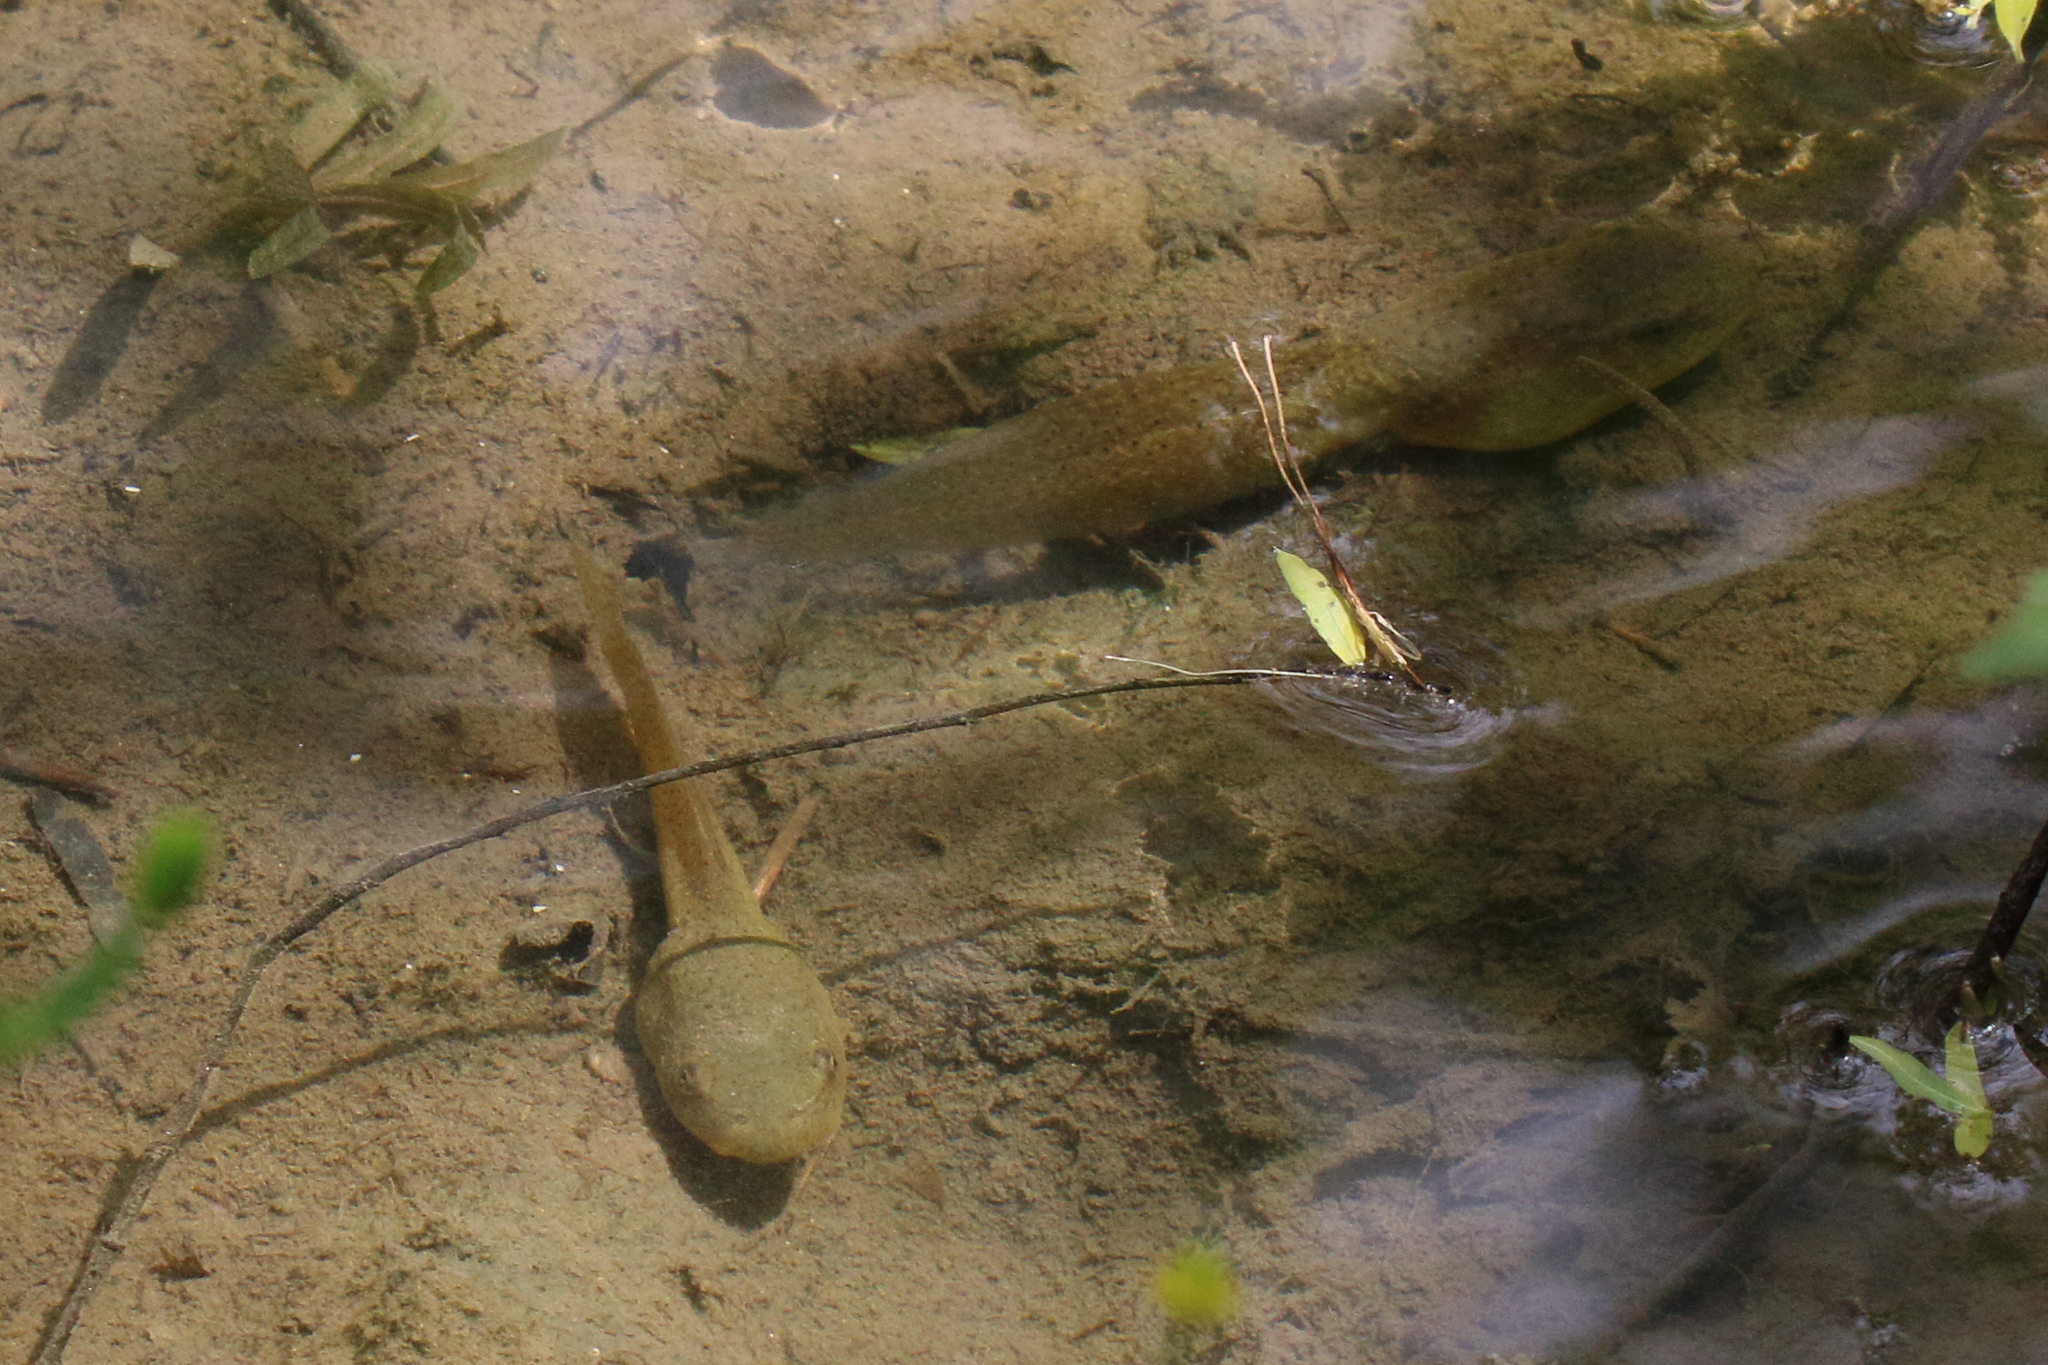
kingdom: Animalia
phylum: Chordata
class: Amphibia
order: Anura
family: Ranidae
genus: Lithobates
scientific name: Lithobates catesbeianus
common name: American bullfrog
